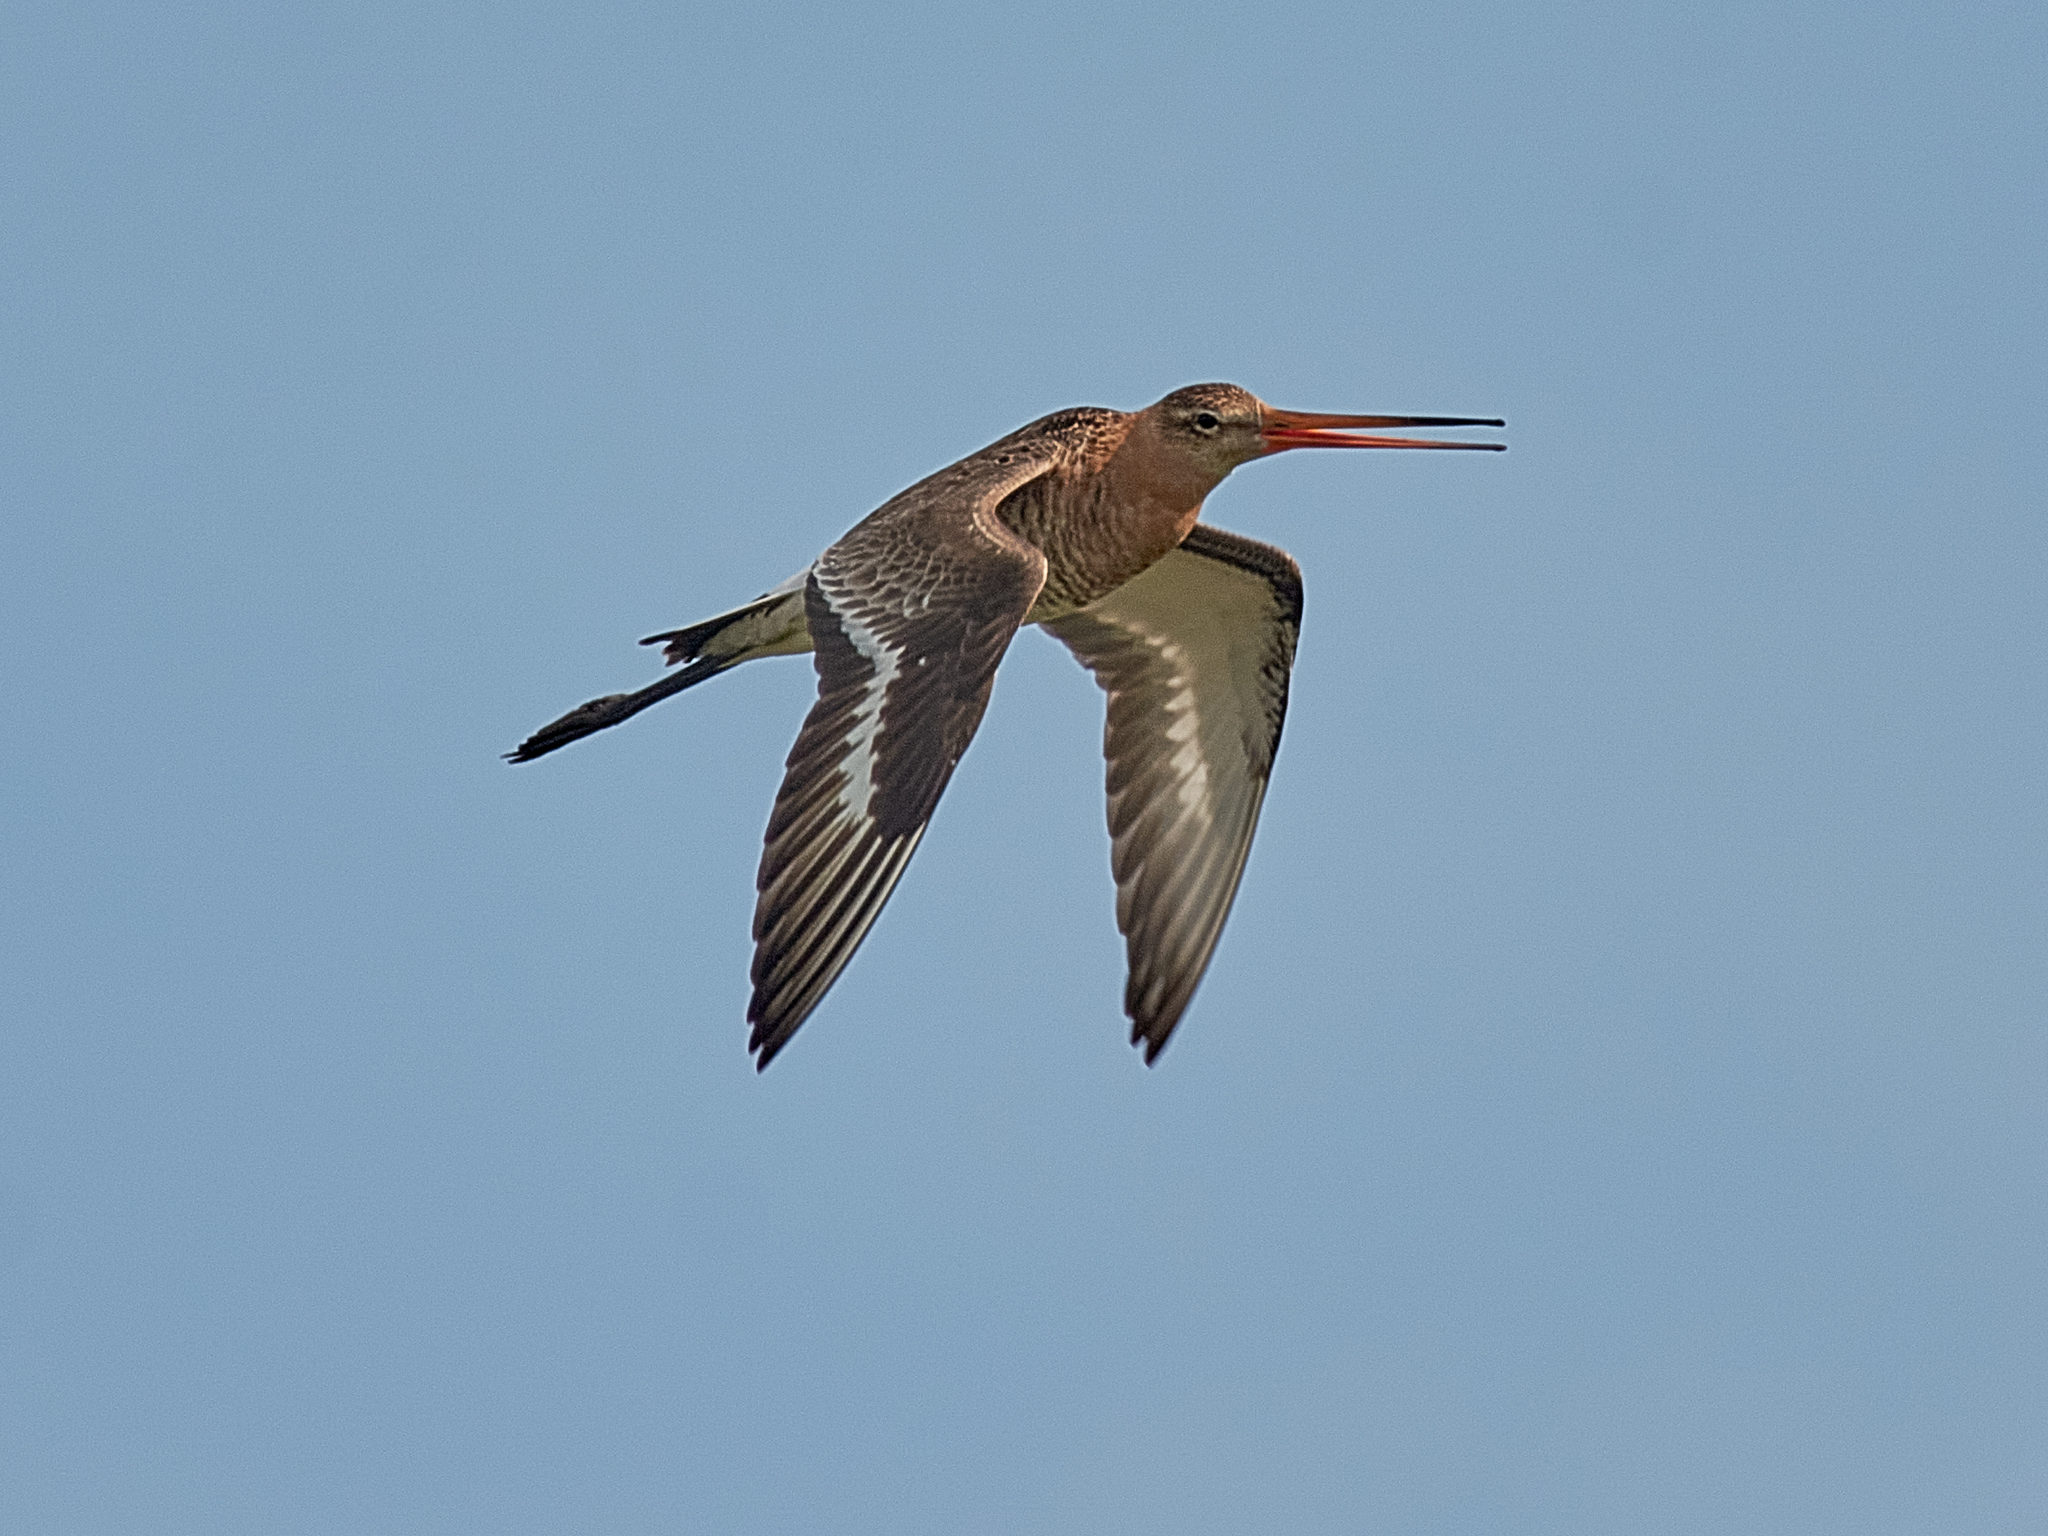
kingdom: Animalia
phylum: Chordata
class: Aves
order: Charadriiformes
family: Scolopacidae
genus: Limosa
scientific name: Limosa limosa
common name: Black-tailed godwit
